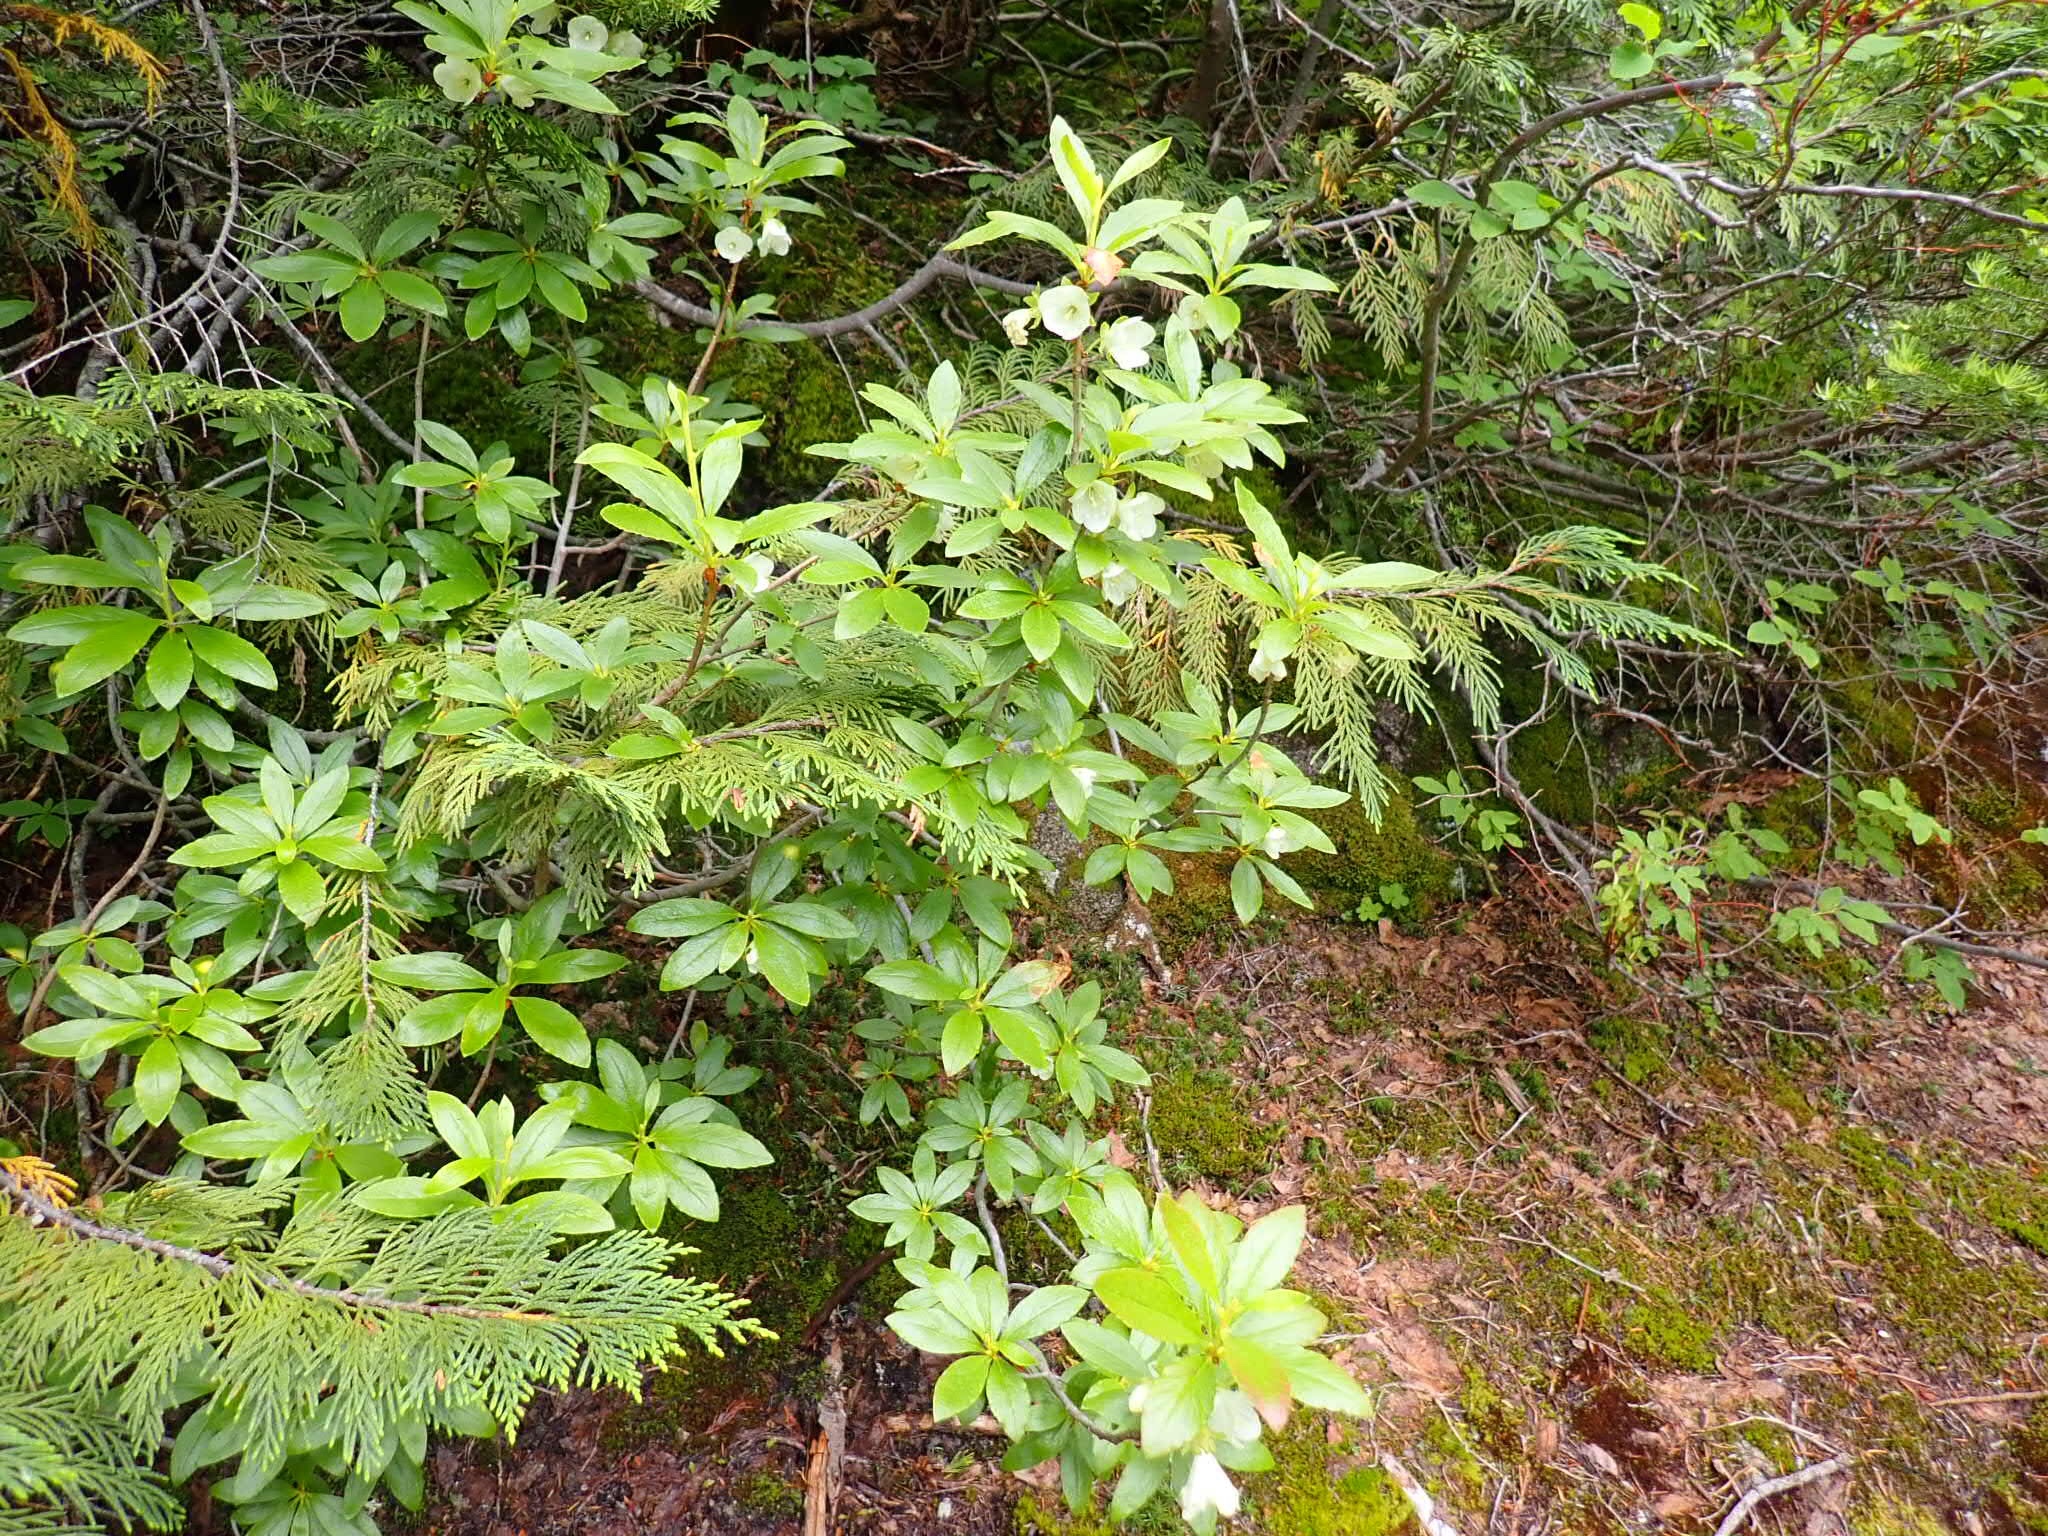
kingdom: Plantae
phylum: Tracheophyta
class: Magnoliopsida
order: Ericales
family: Ericaceae
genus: Rhododendron
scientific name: Rhododendron albiflorum
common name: White rhododendron
